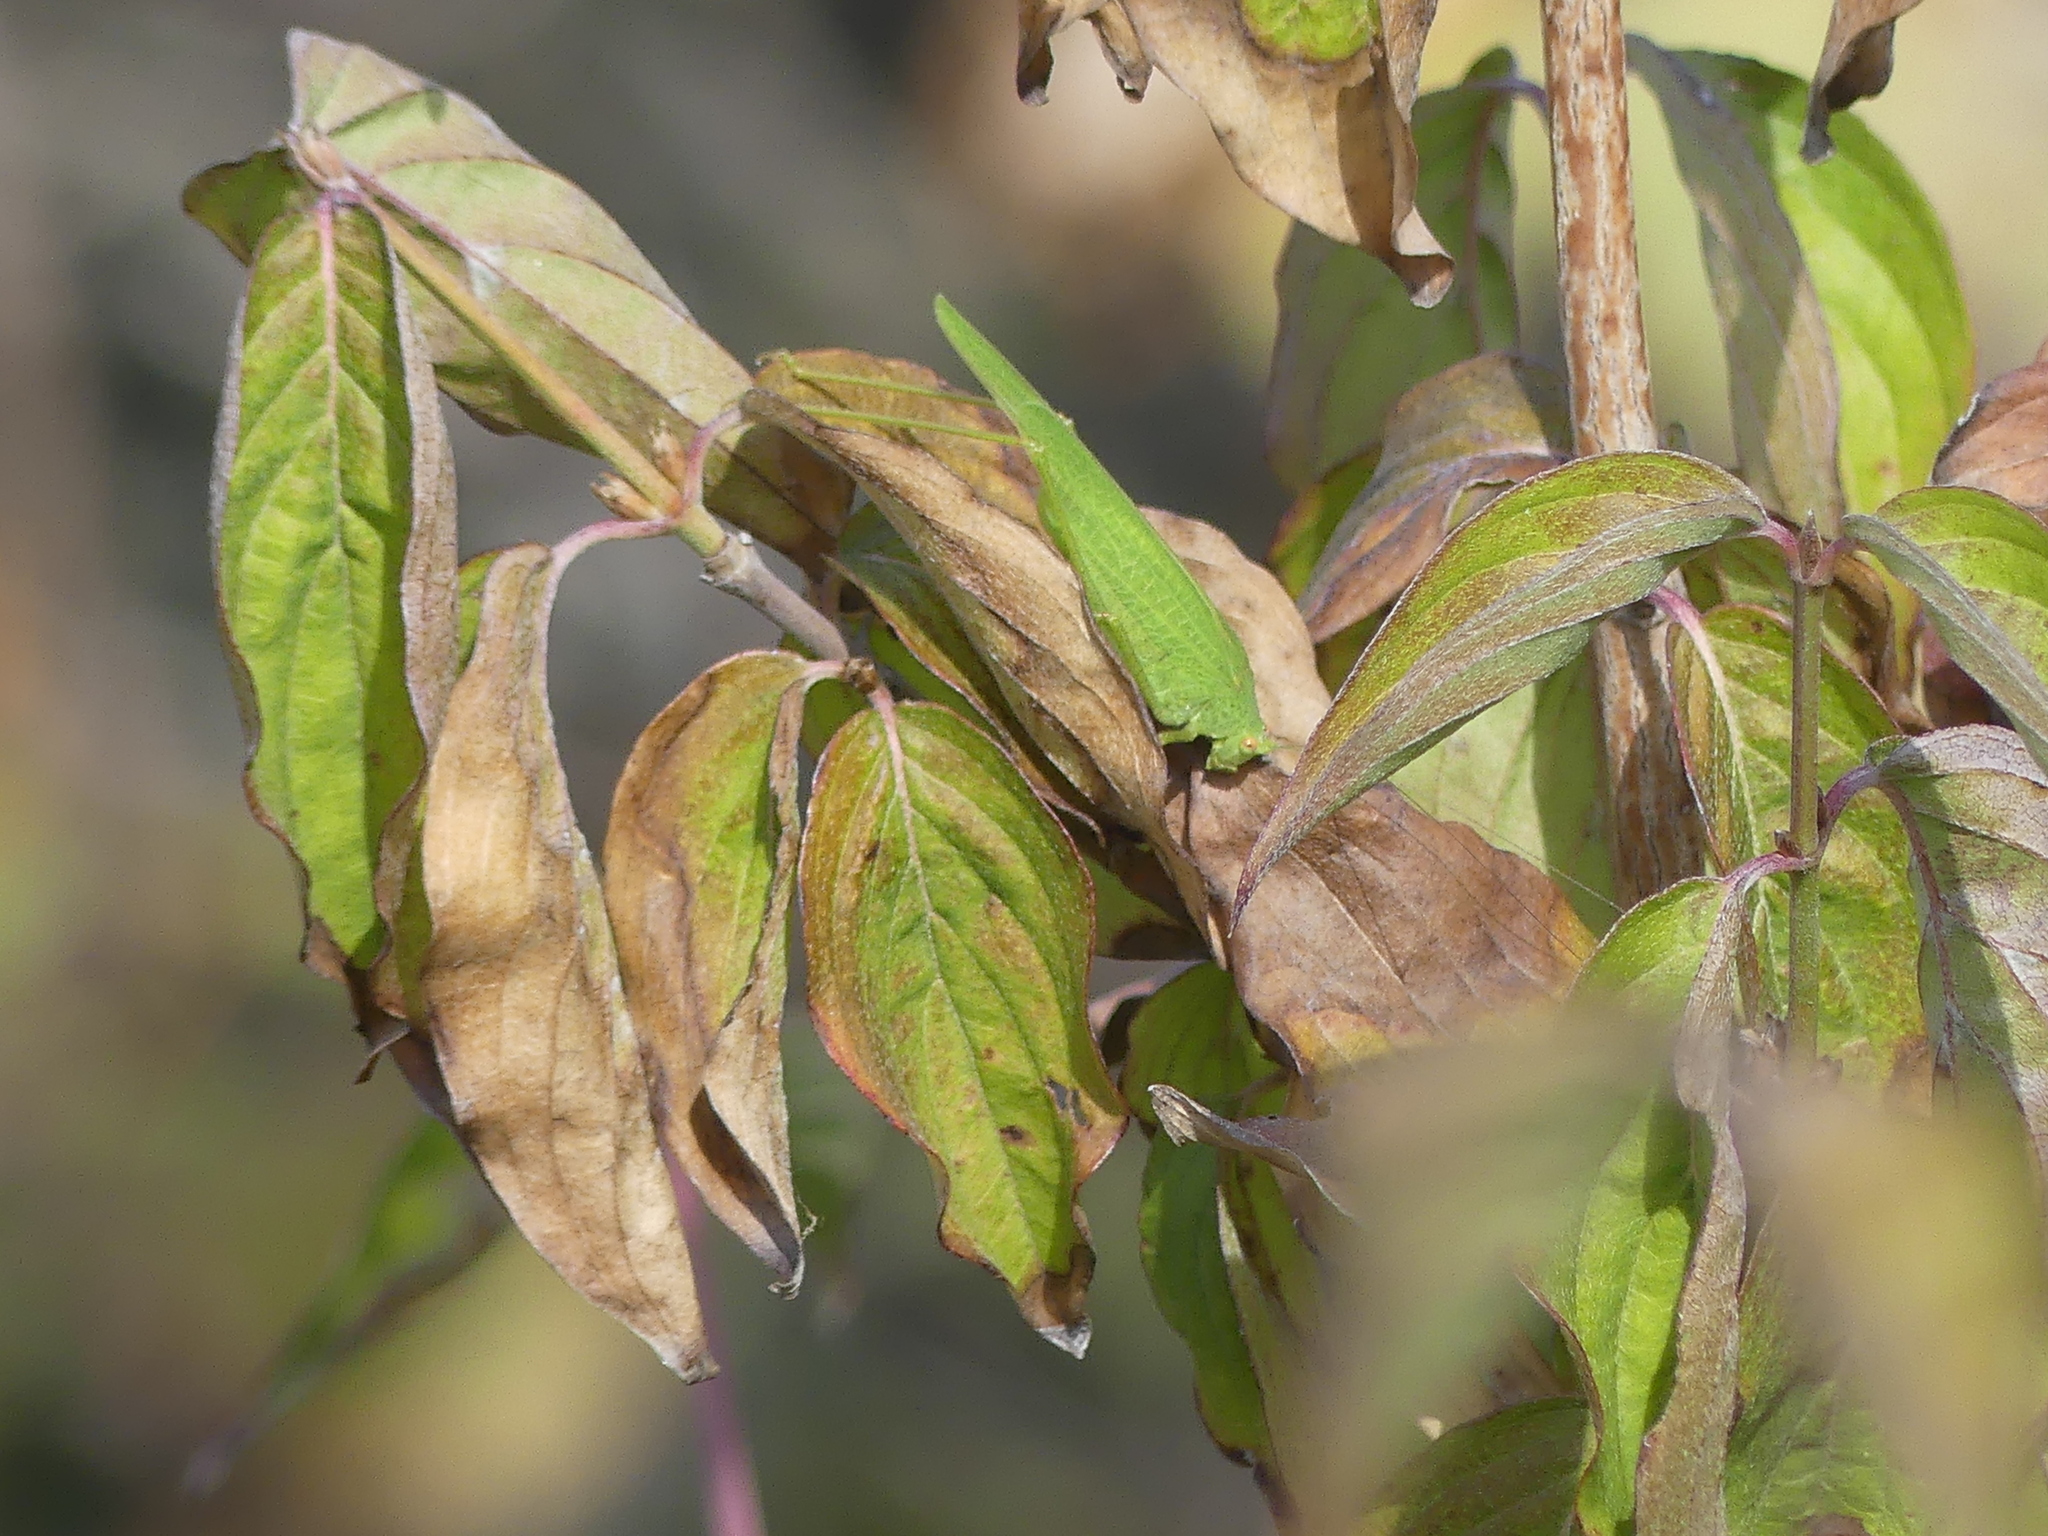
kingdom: Animalia
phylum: Arthropoda
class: Insecta
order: Orthoptera
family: Tettigoniidae
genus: Phaneroptera
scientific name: Phaneroptera nana
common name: Southern sickle bush-cricket
